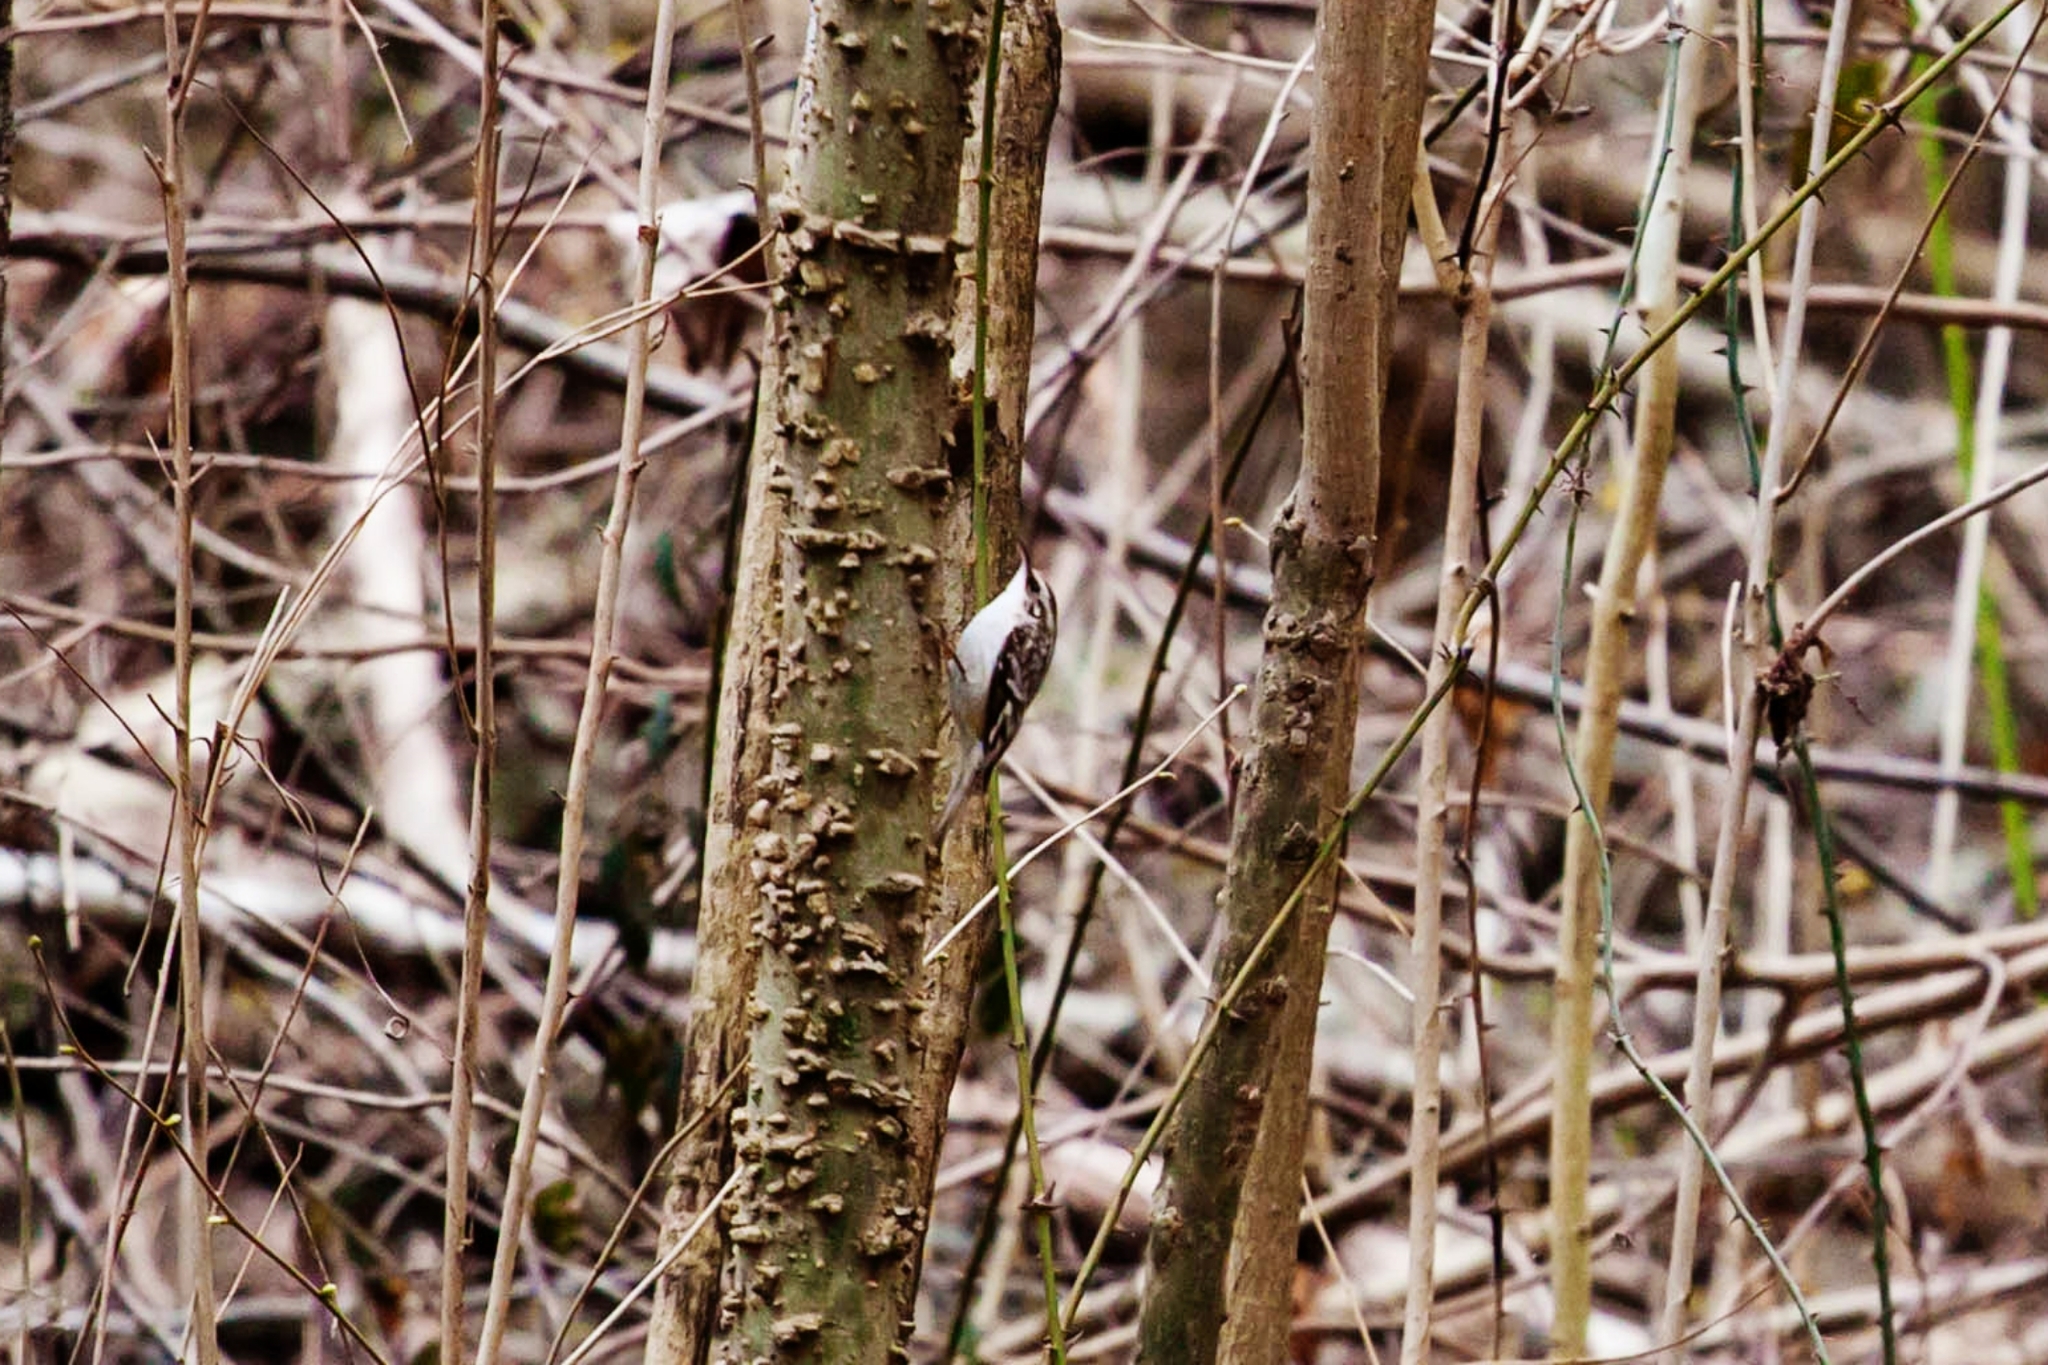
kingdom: Animalia
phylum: Chordata
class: Aves
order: Passeriformes
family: Certhiidae
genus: Certhia
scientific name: Certhia americana
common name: Brown creeper
